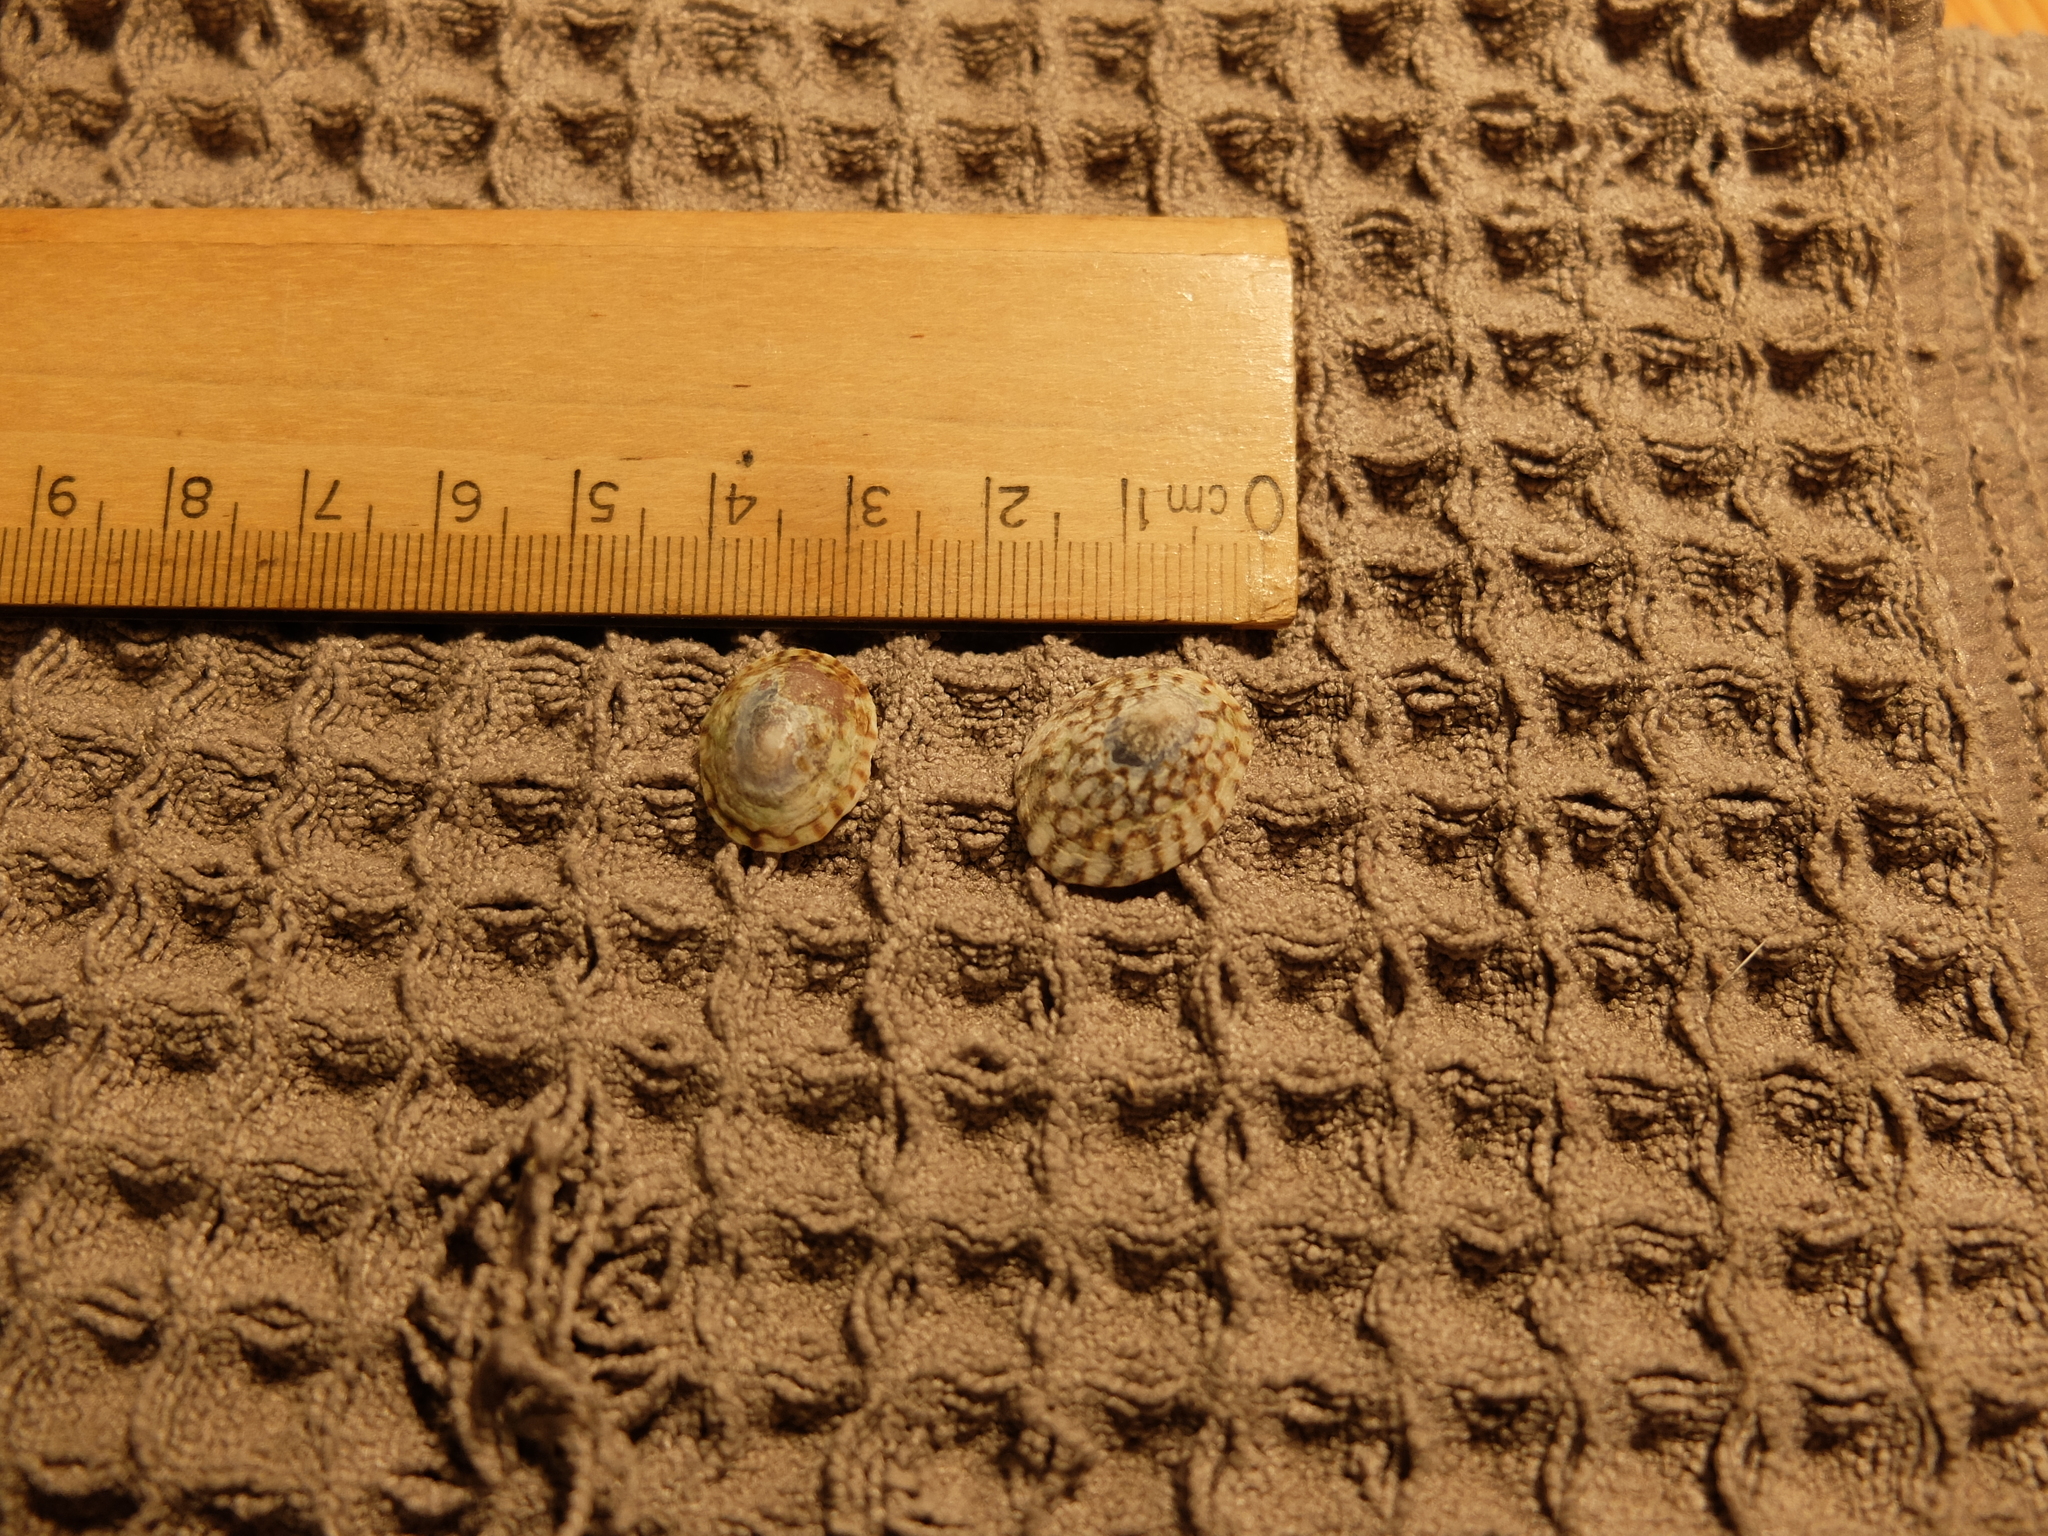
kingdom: Animalia
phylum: Mollusca
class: Gastropoda
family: Lottiidae
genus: Testudinalia
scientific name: Testudinalia testudinalis
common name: Common tortoiseshell limpet
